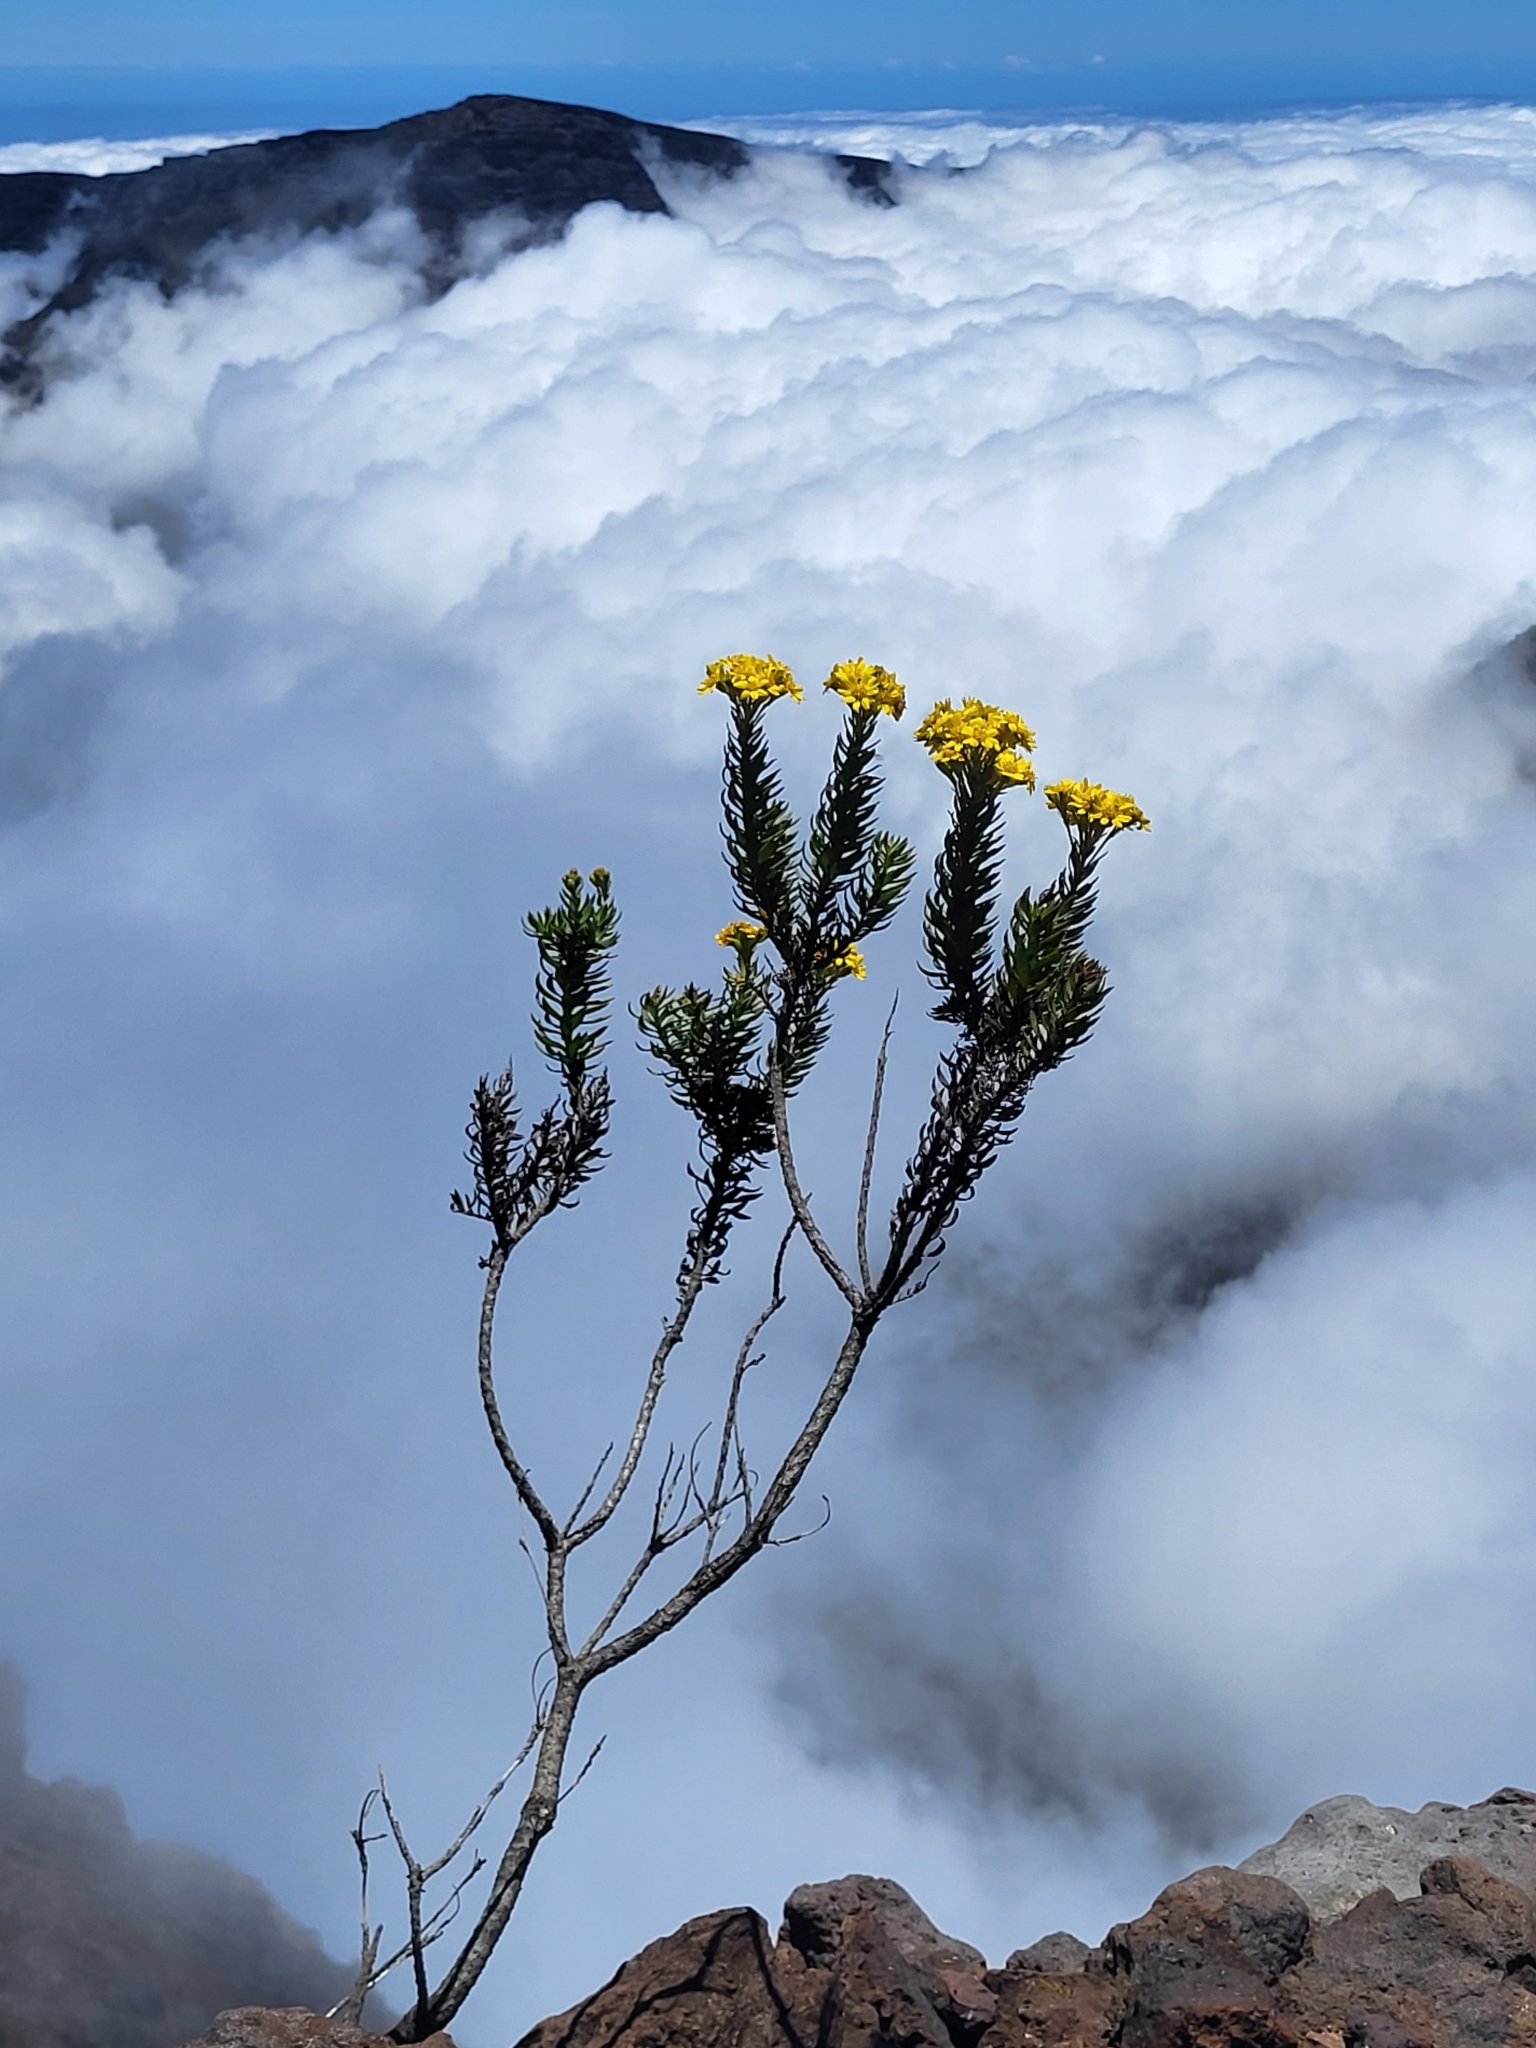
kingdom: Plantae
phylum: Tracheophyta
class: Magnoliopsida
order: Asterales
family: Asteraceae
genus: Hubertia
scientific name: Hubertia tomentosa
